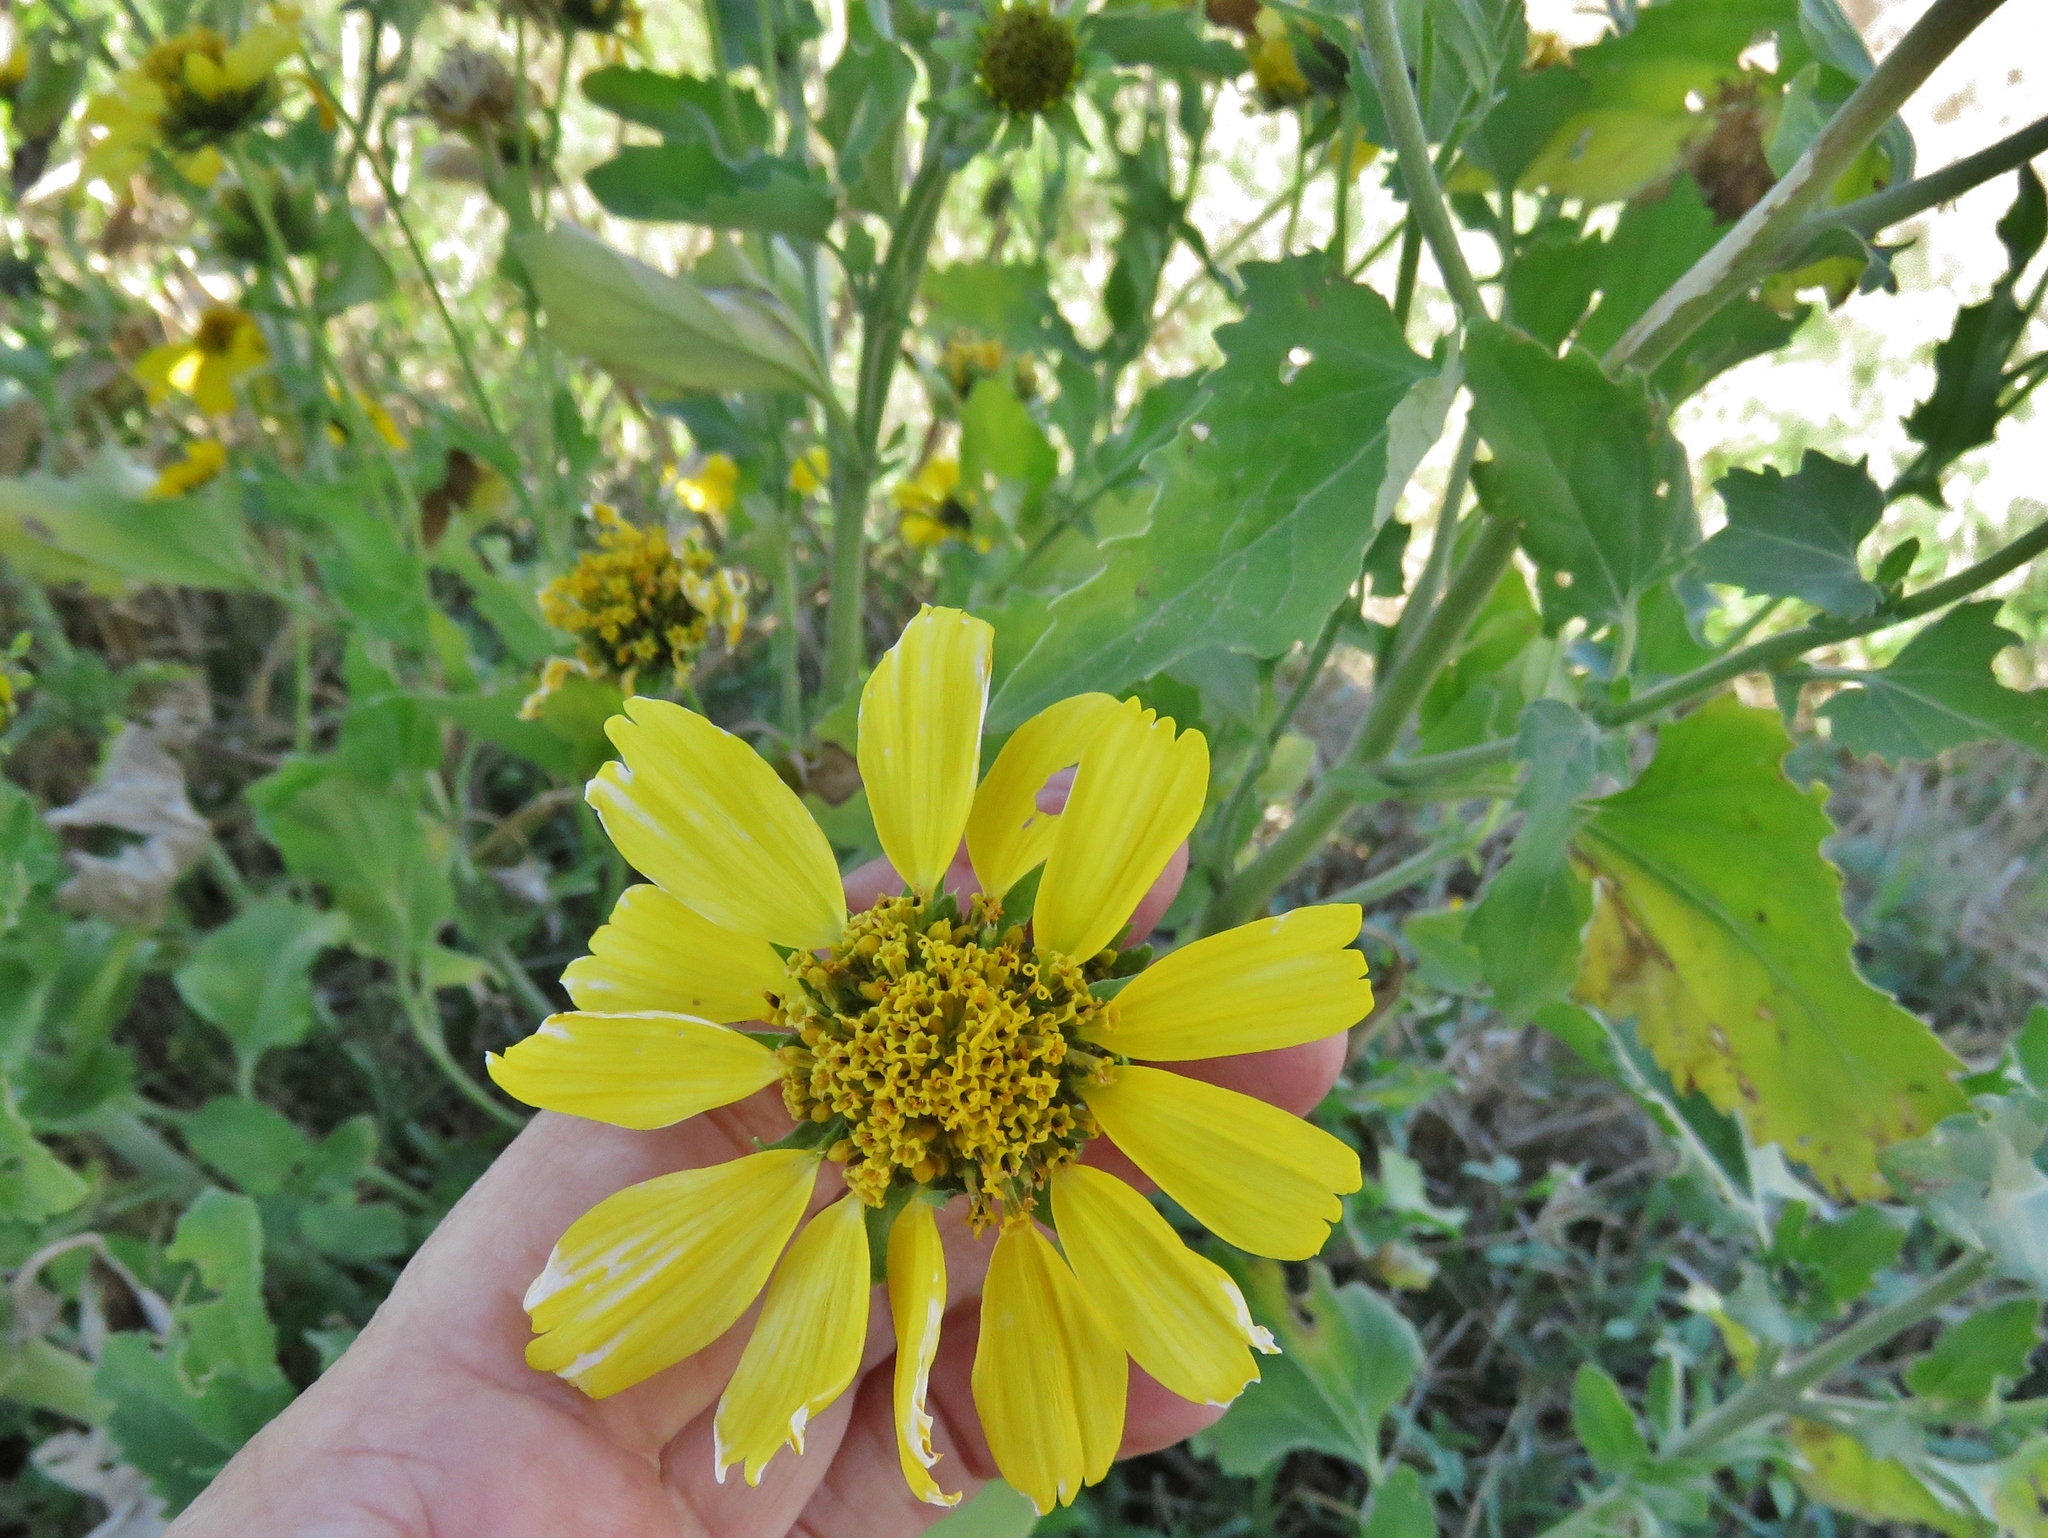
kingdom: Plantae
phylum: Tracheophyta
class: Magnoliopsida
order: Asterales
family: Asteraceae
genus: Verbesina
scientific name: Verbesina encelioides
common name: Golden crownbeard
